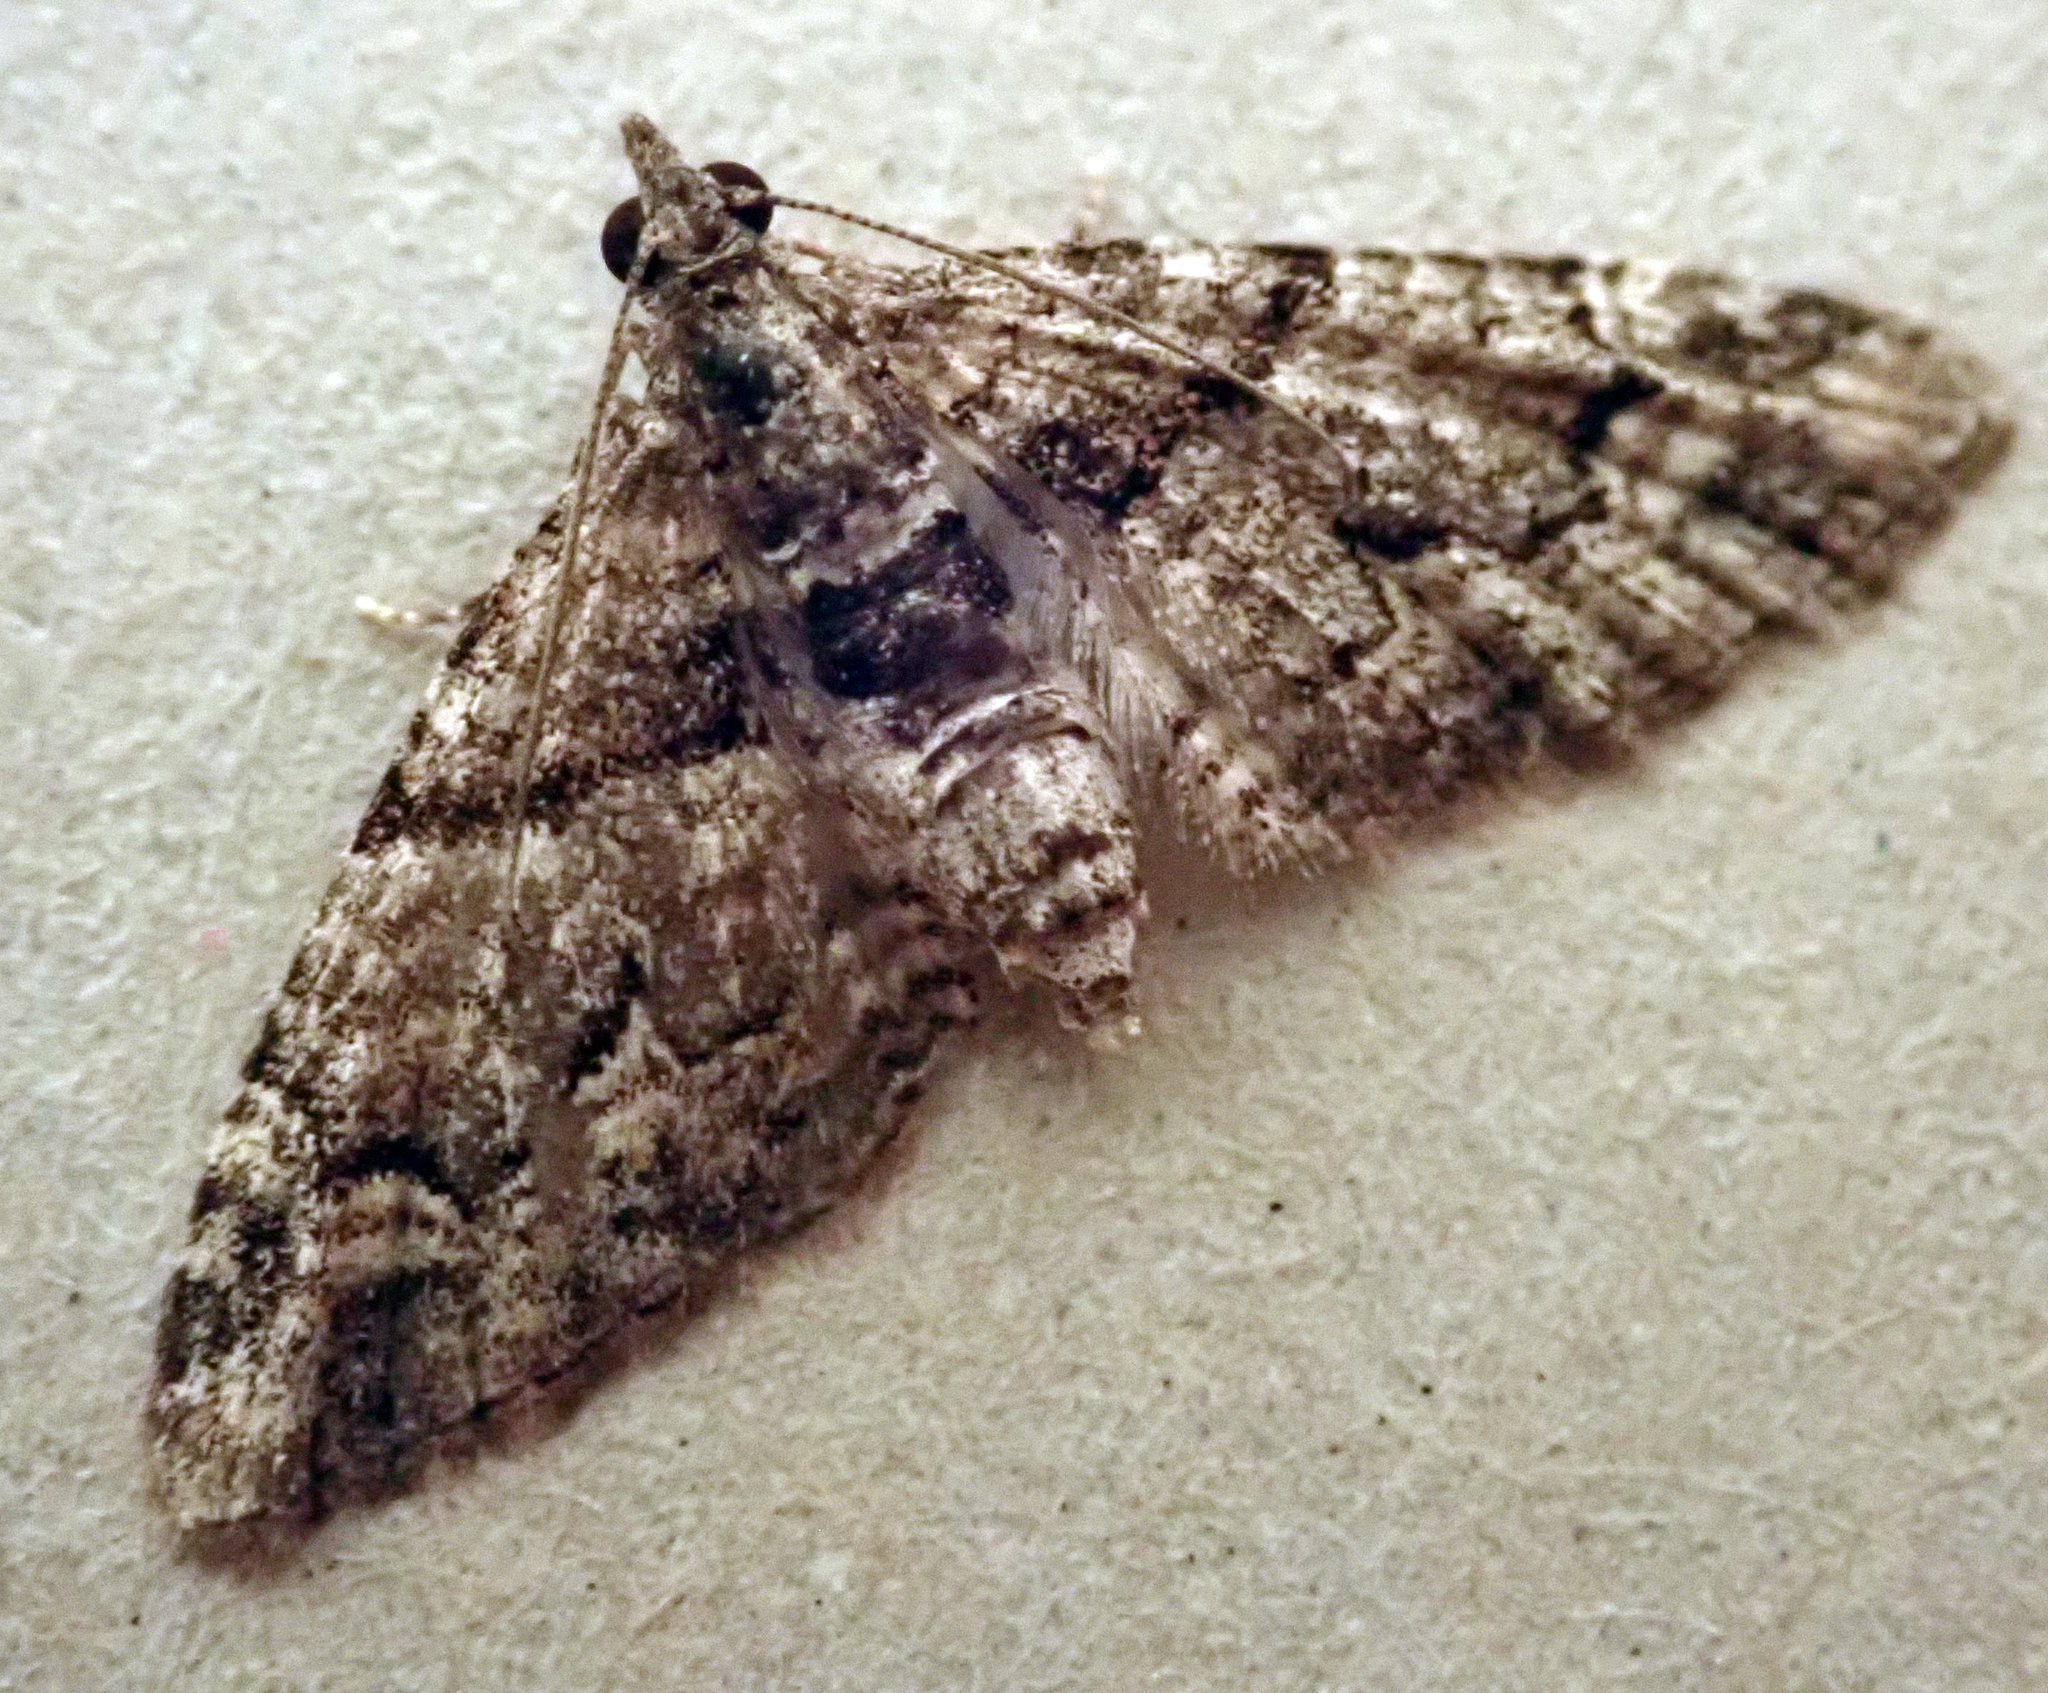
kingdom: Animalia
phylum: Arthropoda
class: Insecta
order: Lepidoptera
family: Geometridae
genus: Phrissogonus
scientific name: Phrissogonus laticostata
